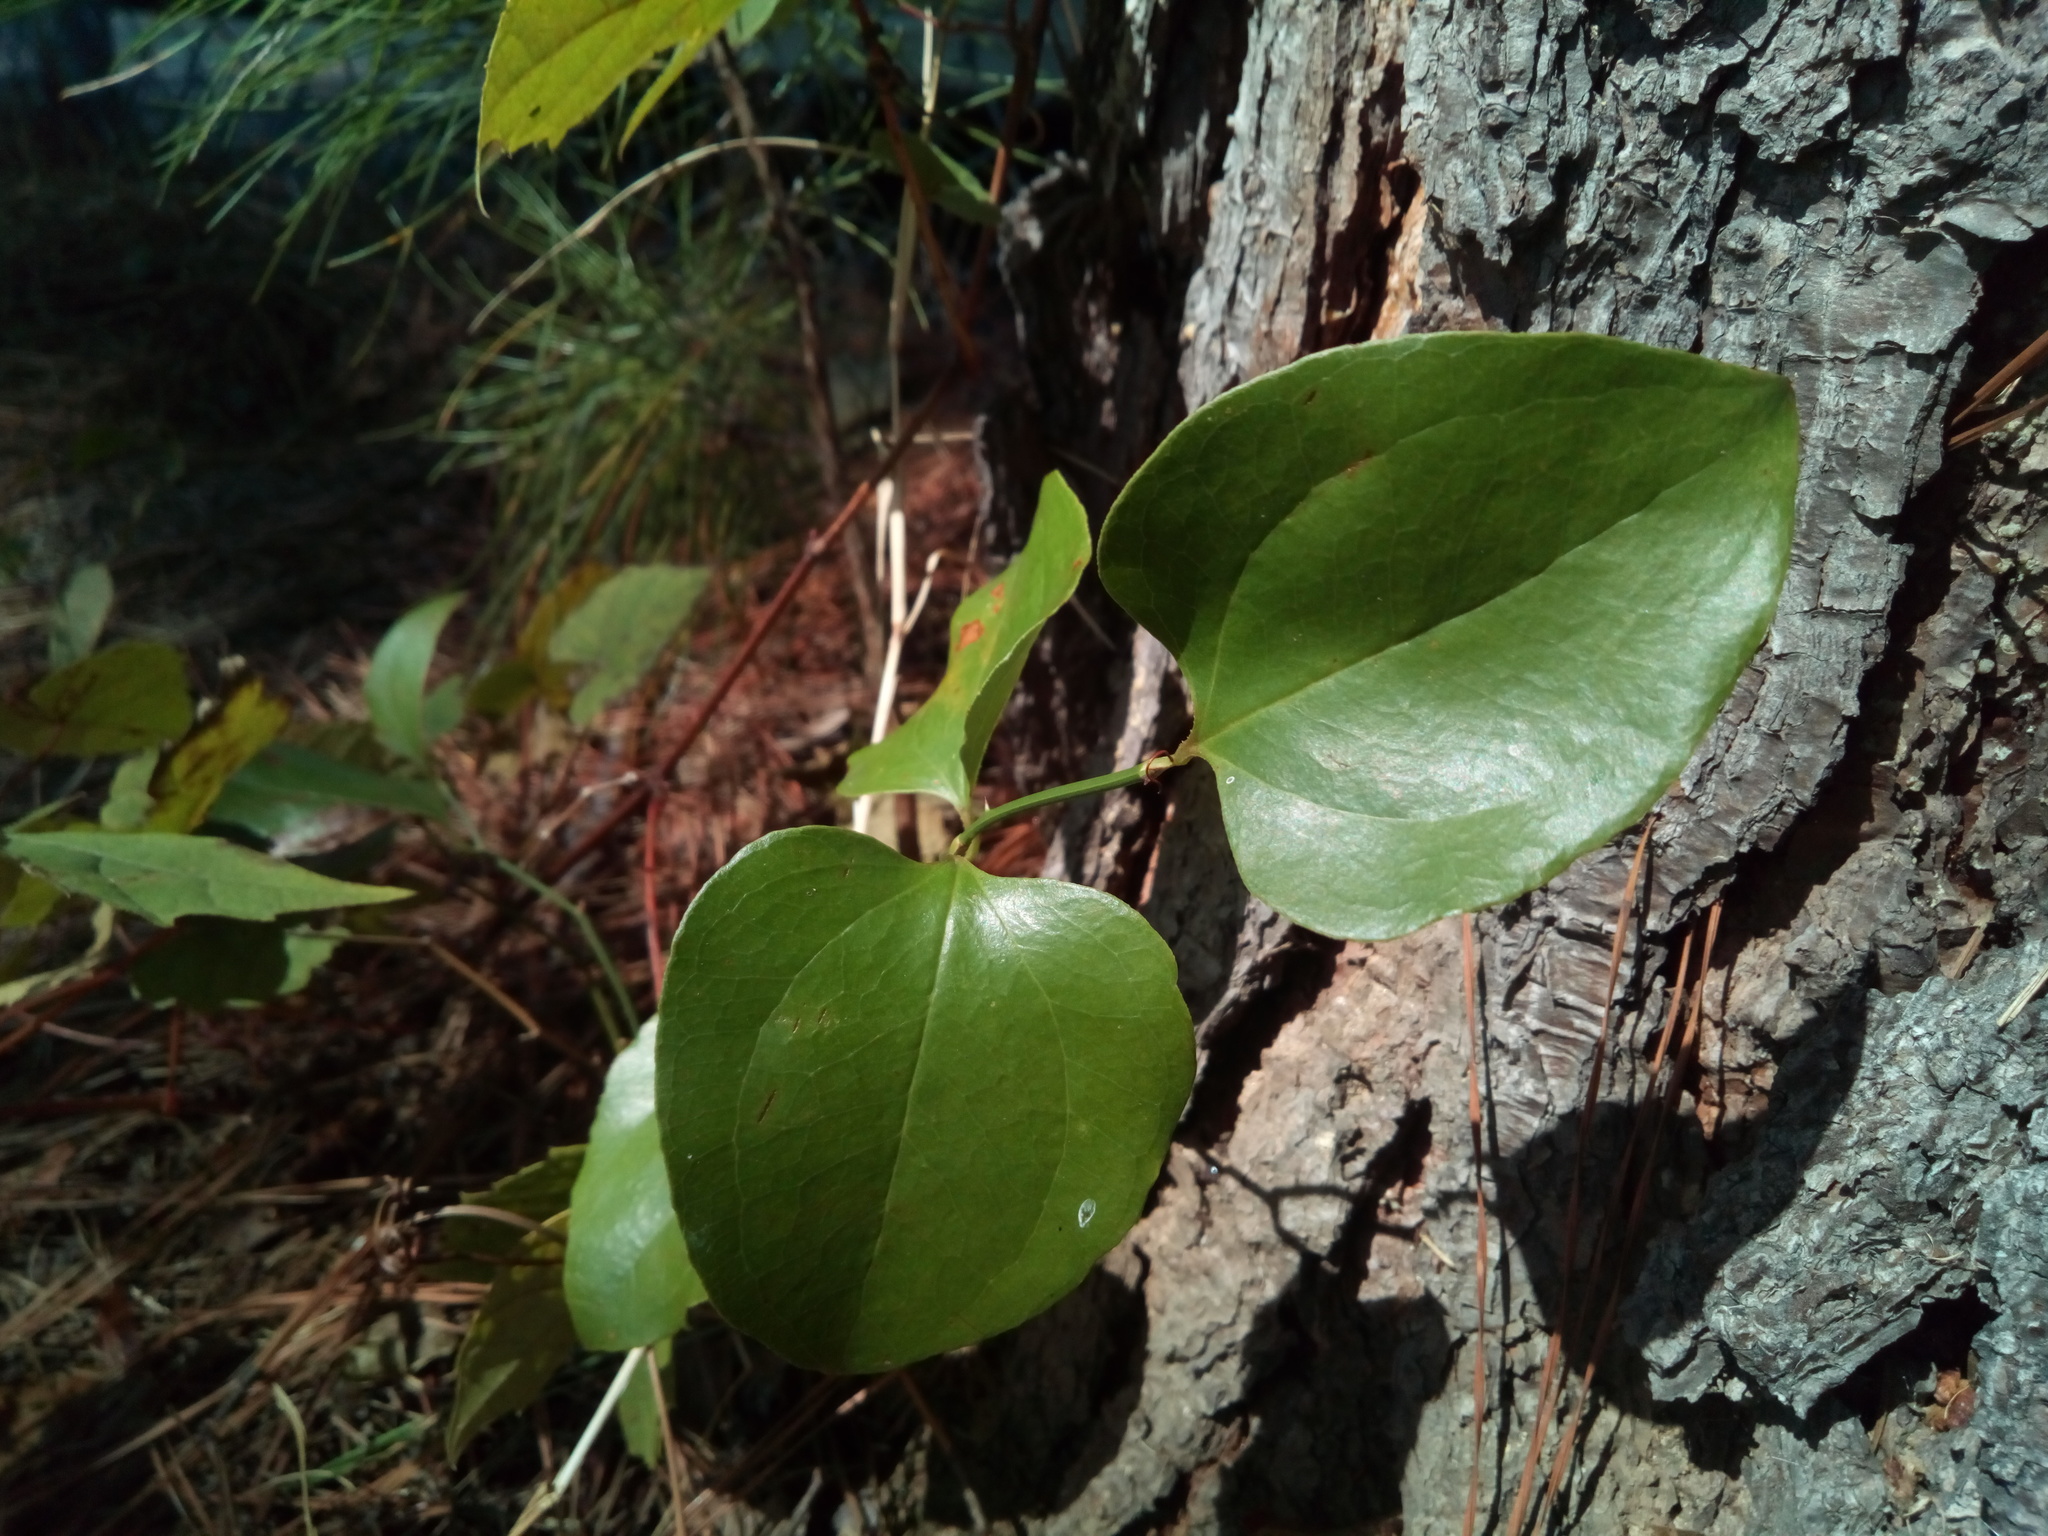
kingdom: Plantae
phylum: Tracheophyta
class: Liliopsida
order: Liliales
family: Smilacaceae
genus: Smilax
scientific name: Smilax rotundifolia
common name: Bullbriar
